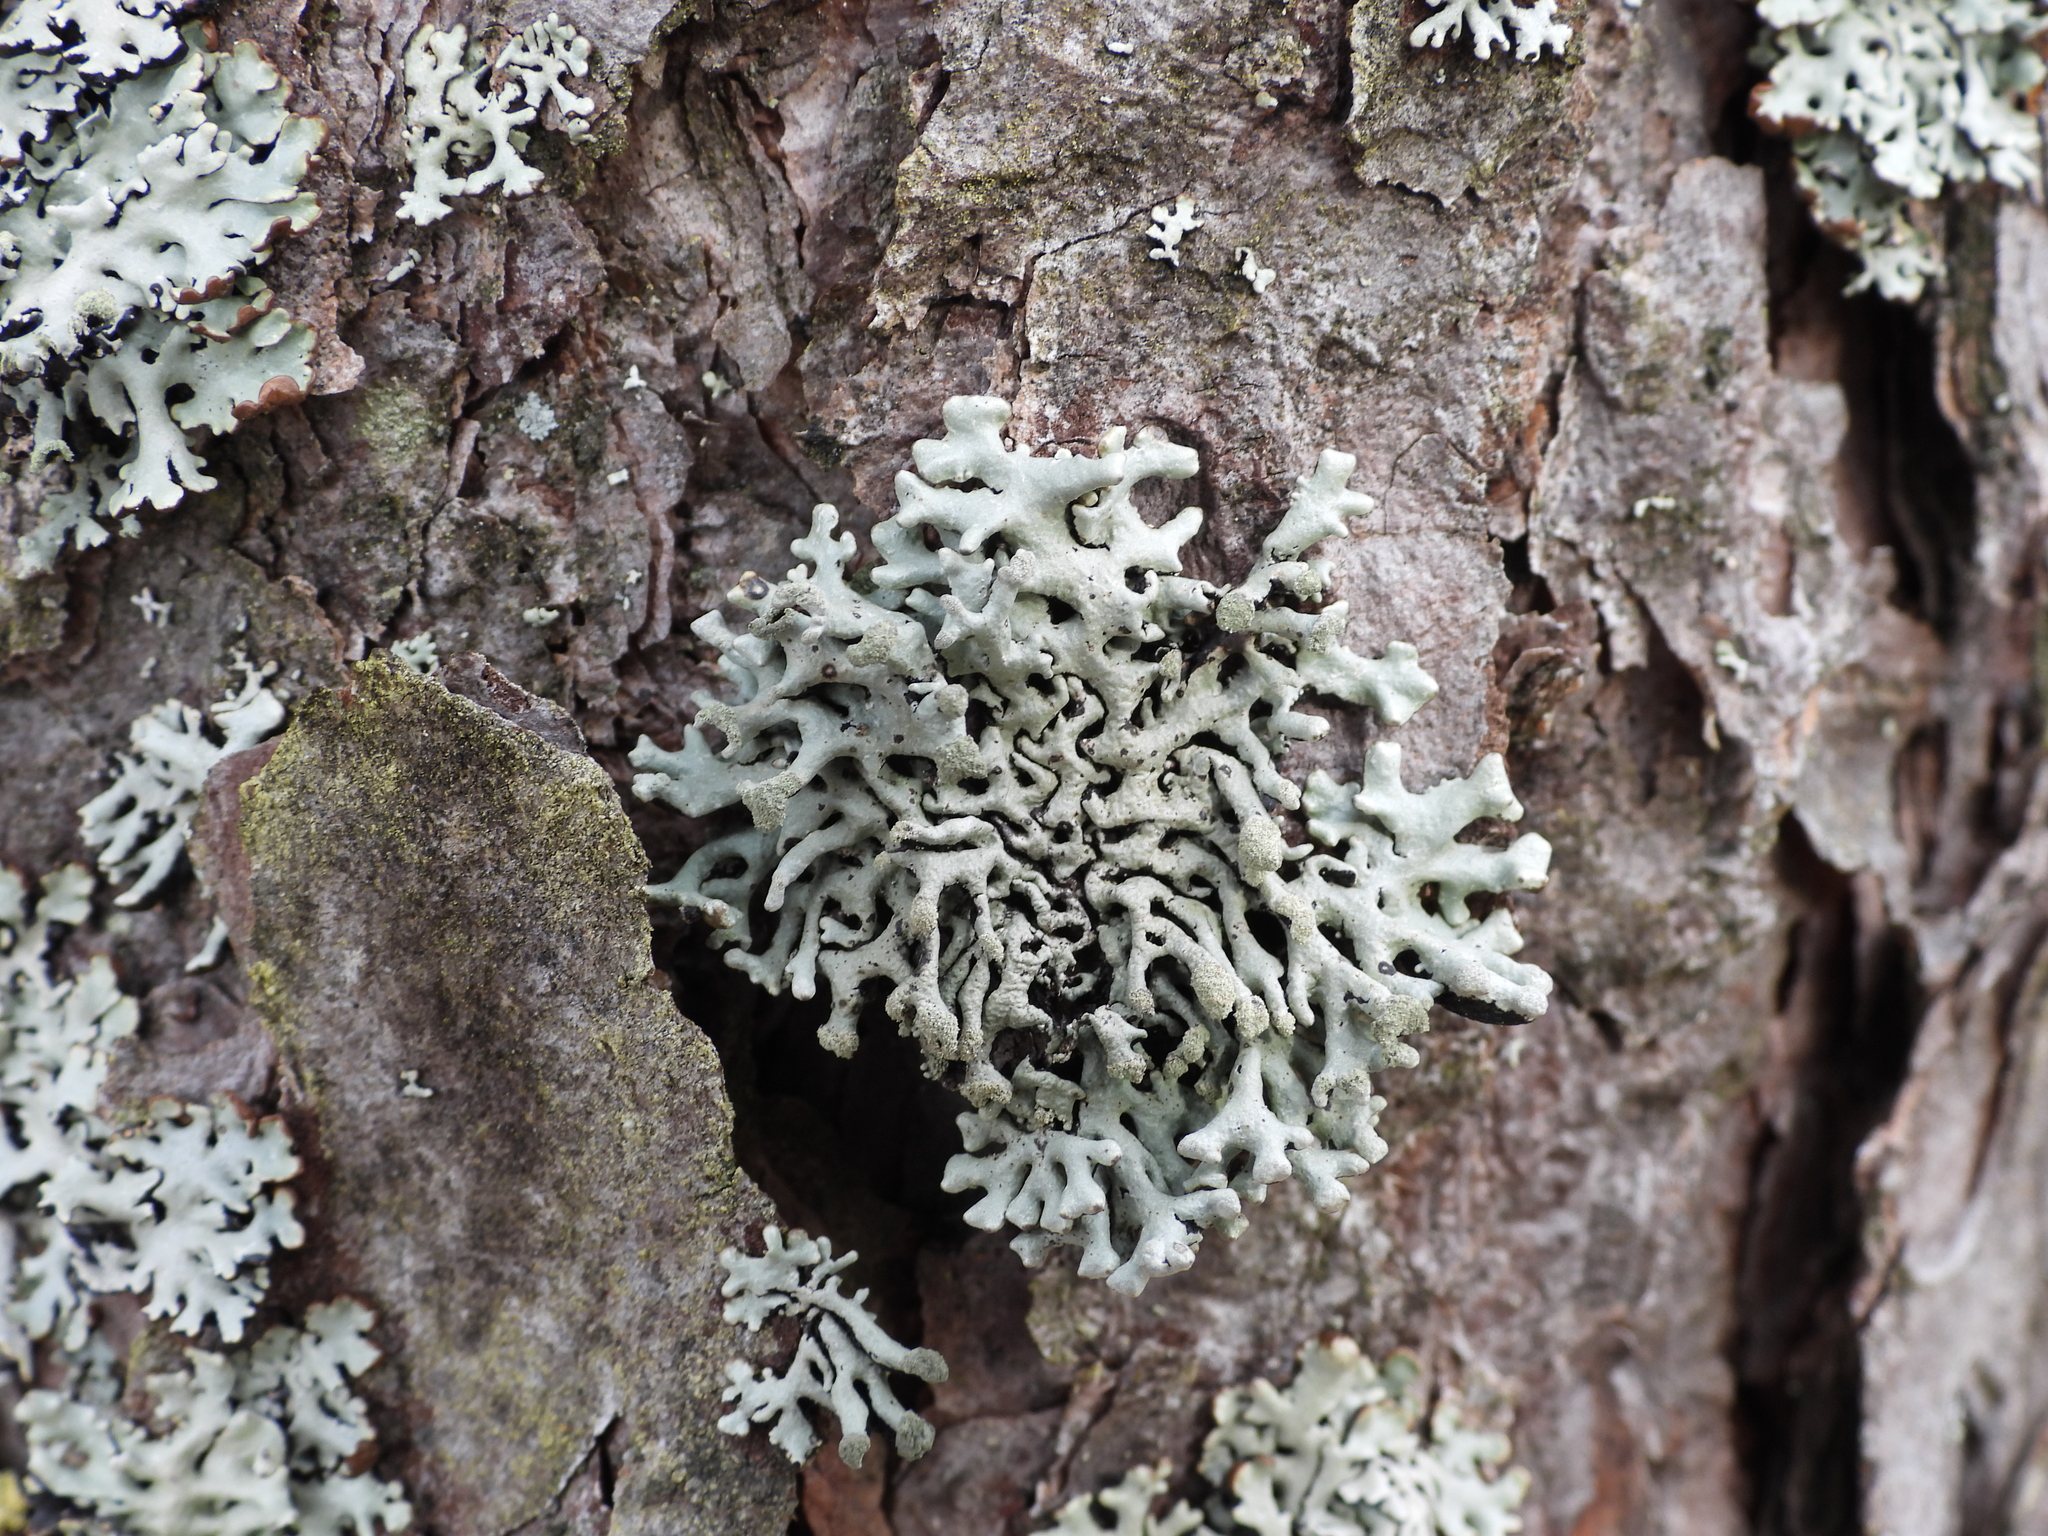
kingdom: Fungi
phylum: Ascomycota
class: Lecanoromycetes
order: Lecanorales
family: Parmeliaceae
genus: Hypogymnia
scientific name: Hypogymnia tubulosa
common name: Powder-headed tube lichen
